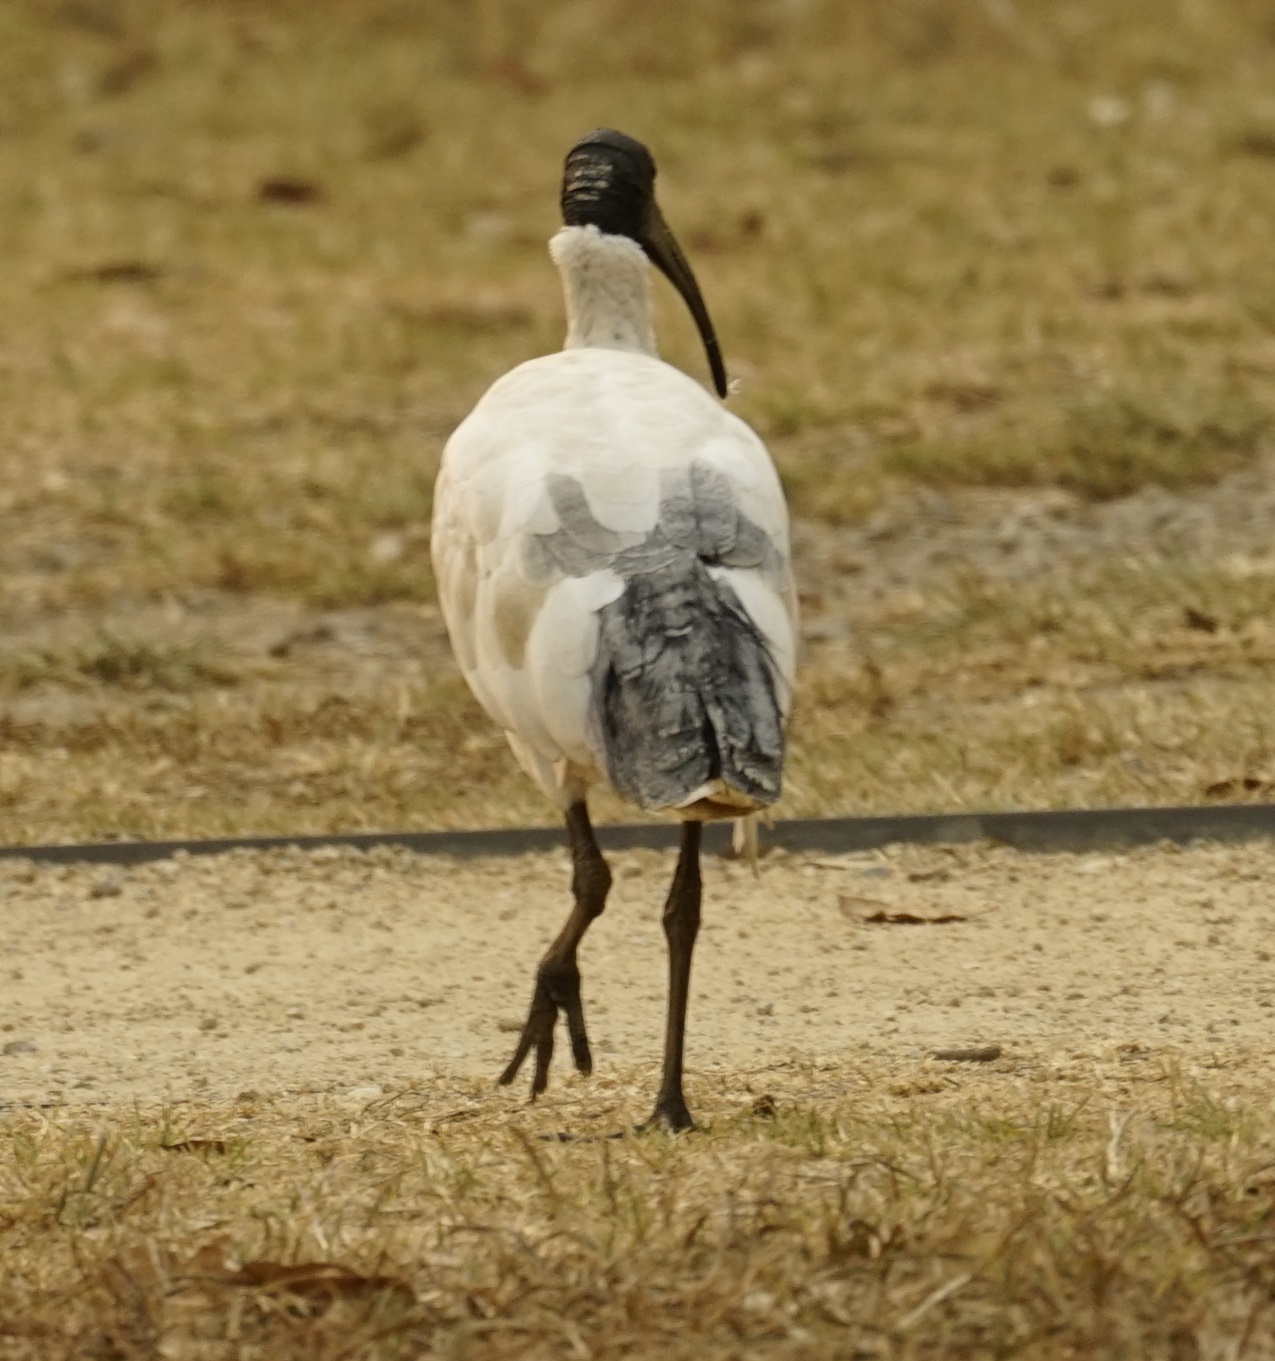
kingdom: Animalia
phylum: Chordata
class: Aves
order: Pelecaniformes
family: Threskiornithidae
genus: Threskiornis
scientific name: Threskiornis molucca
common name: Australian white ibis
